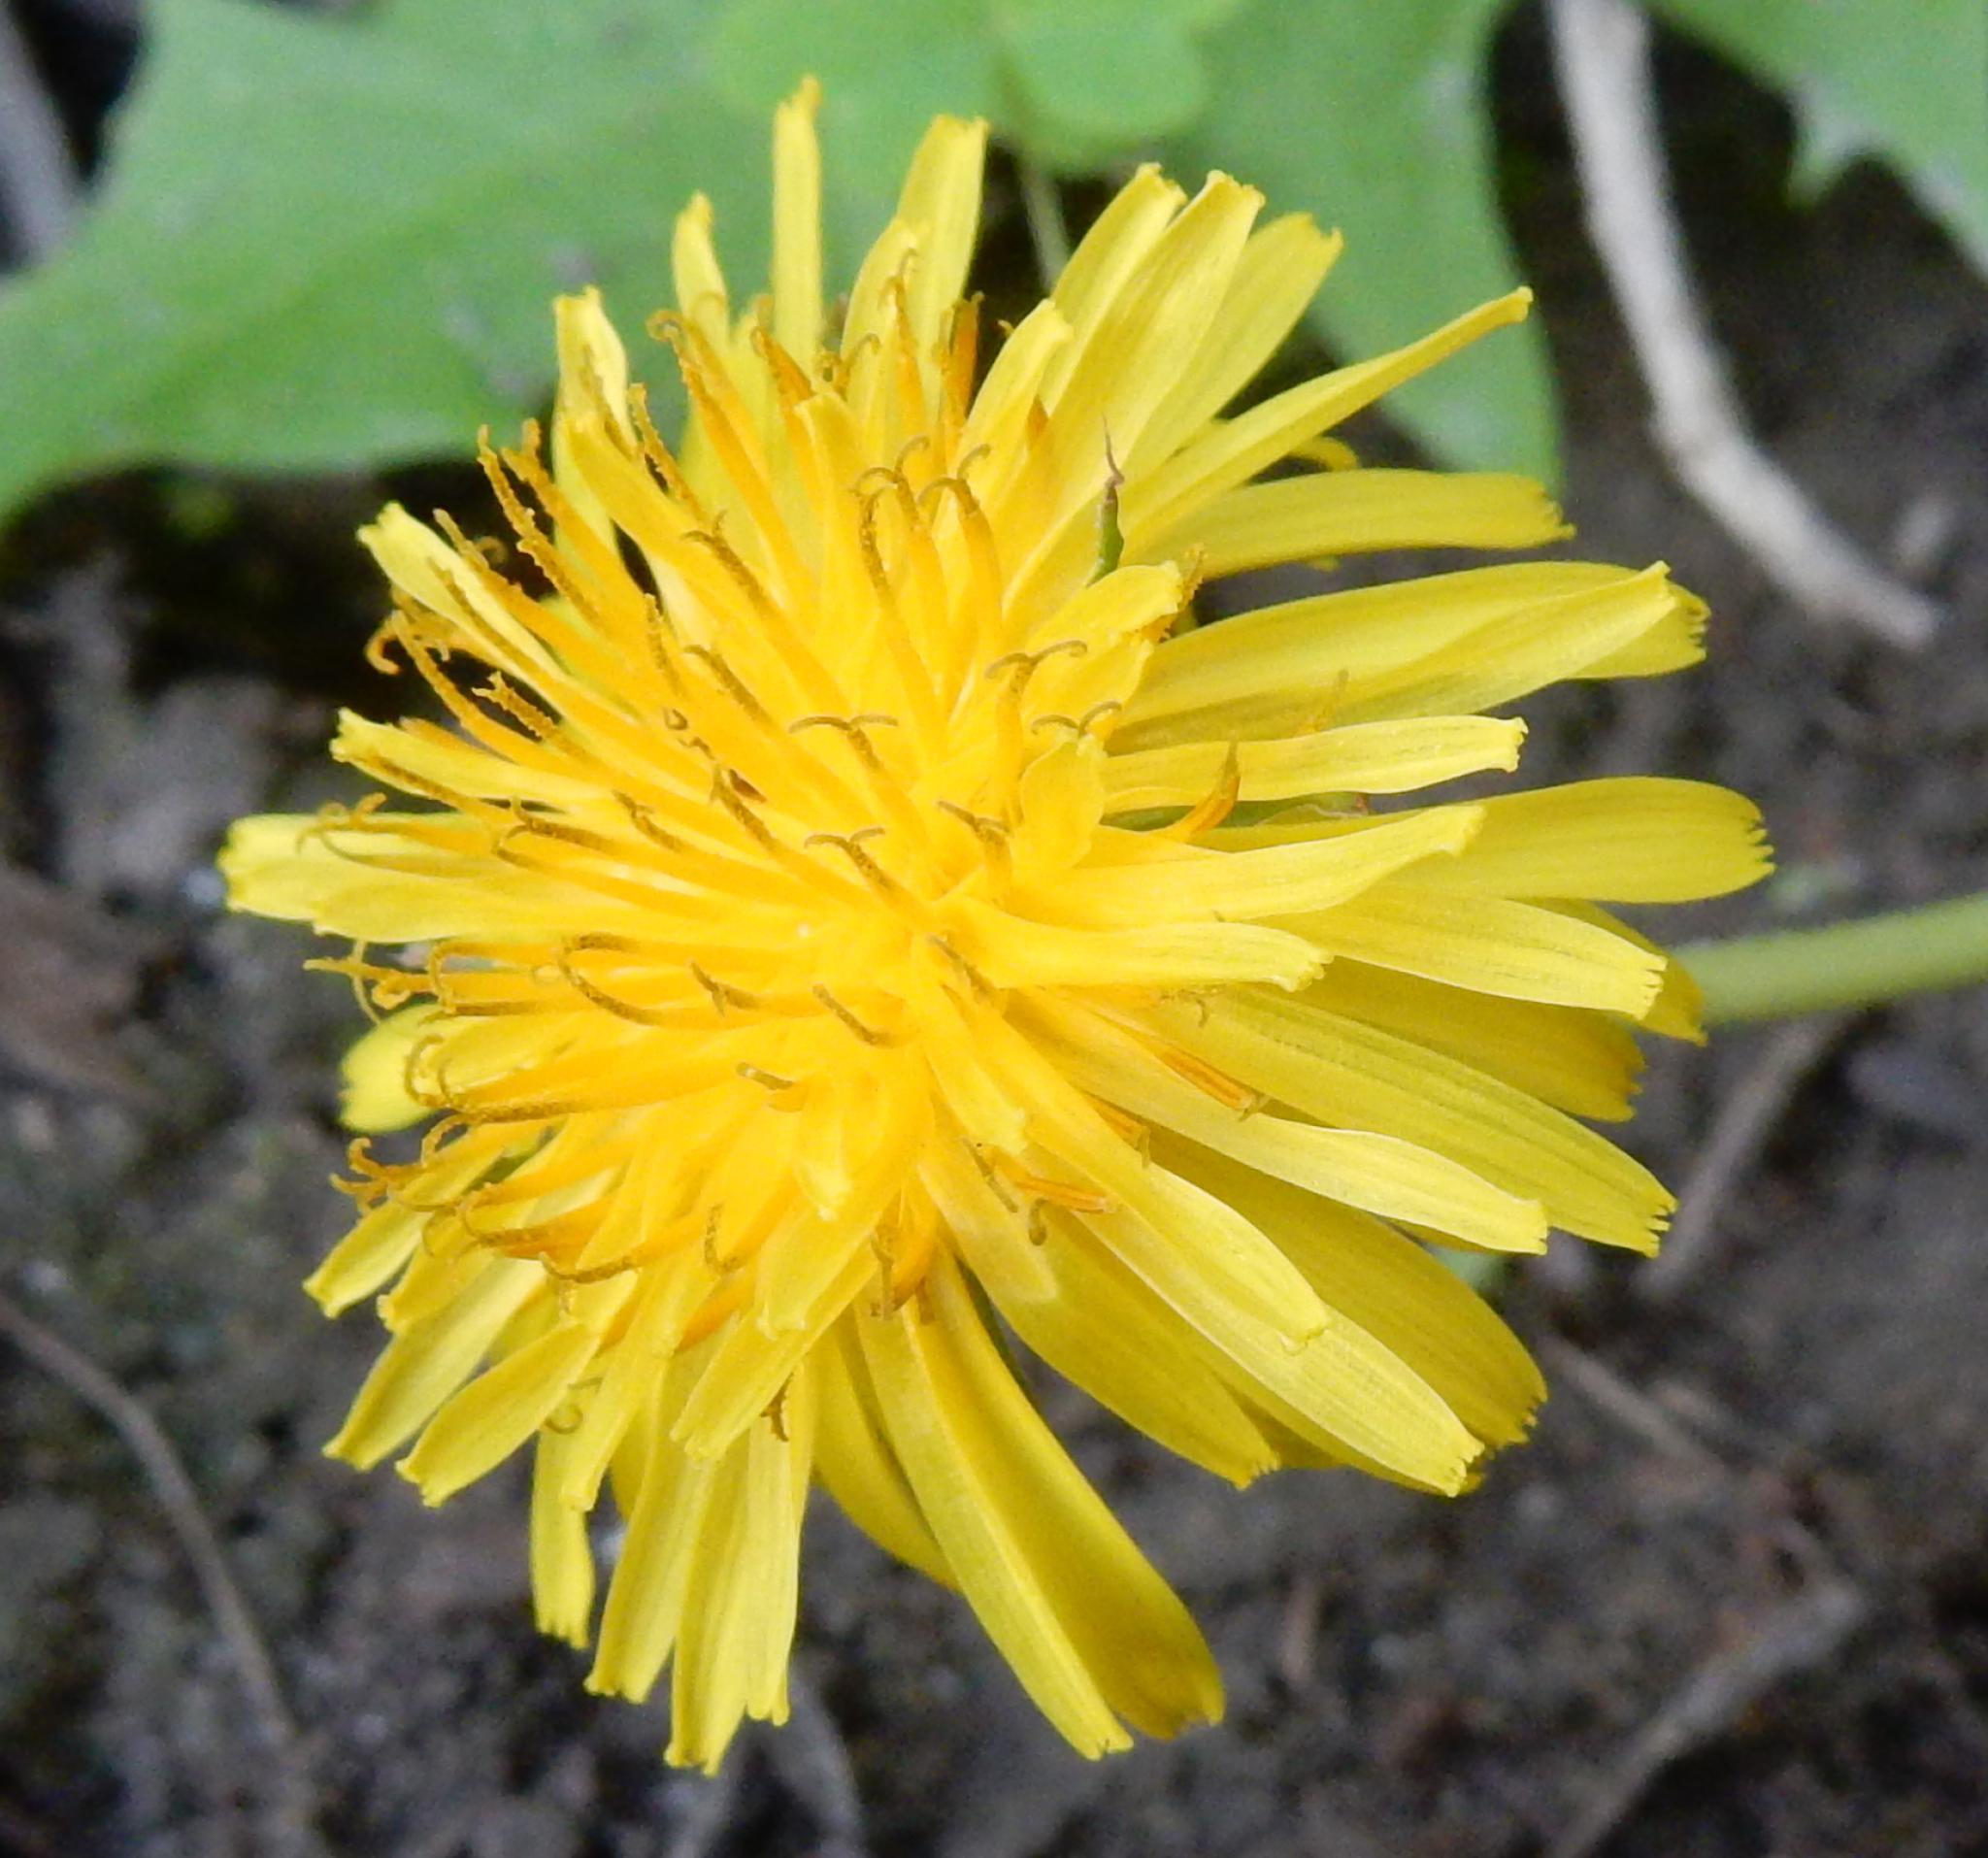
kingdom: Plantae
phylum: Tracheophyta
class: Magnoliopsida
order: Asterales
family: Asteraceae
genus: Taraxacum
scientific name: Taraxacum officinale
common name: Common dandelion
